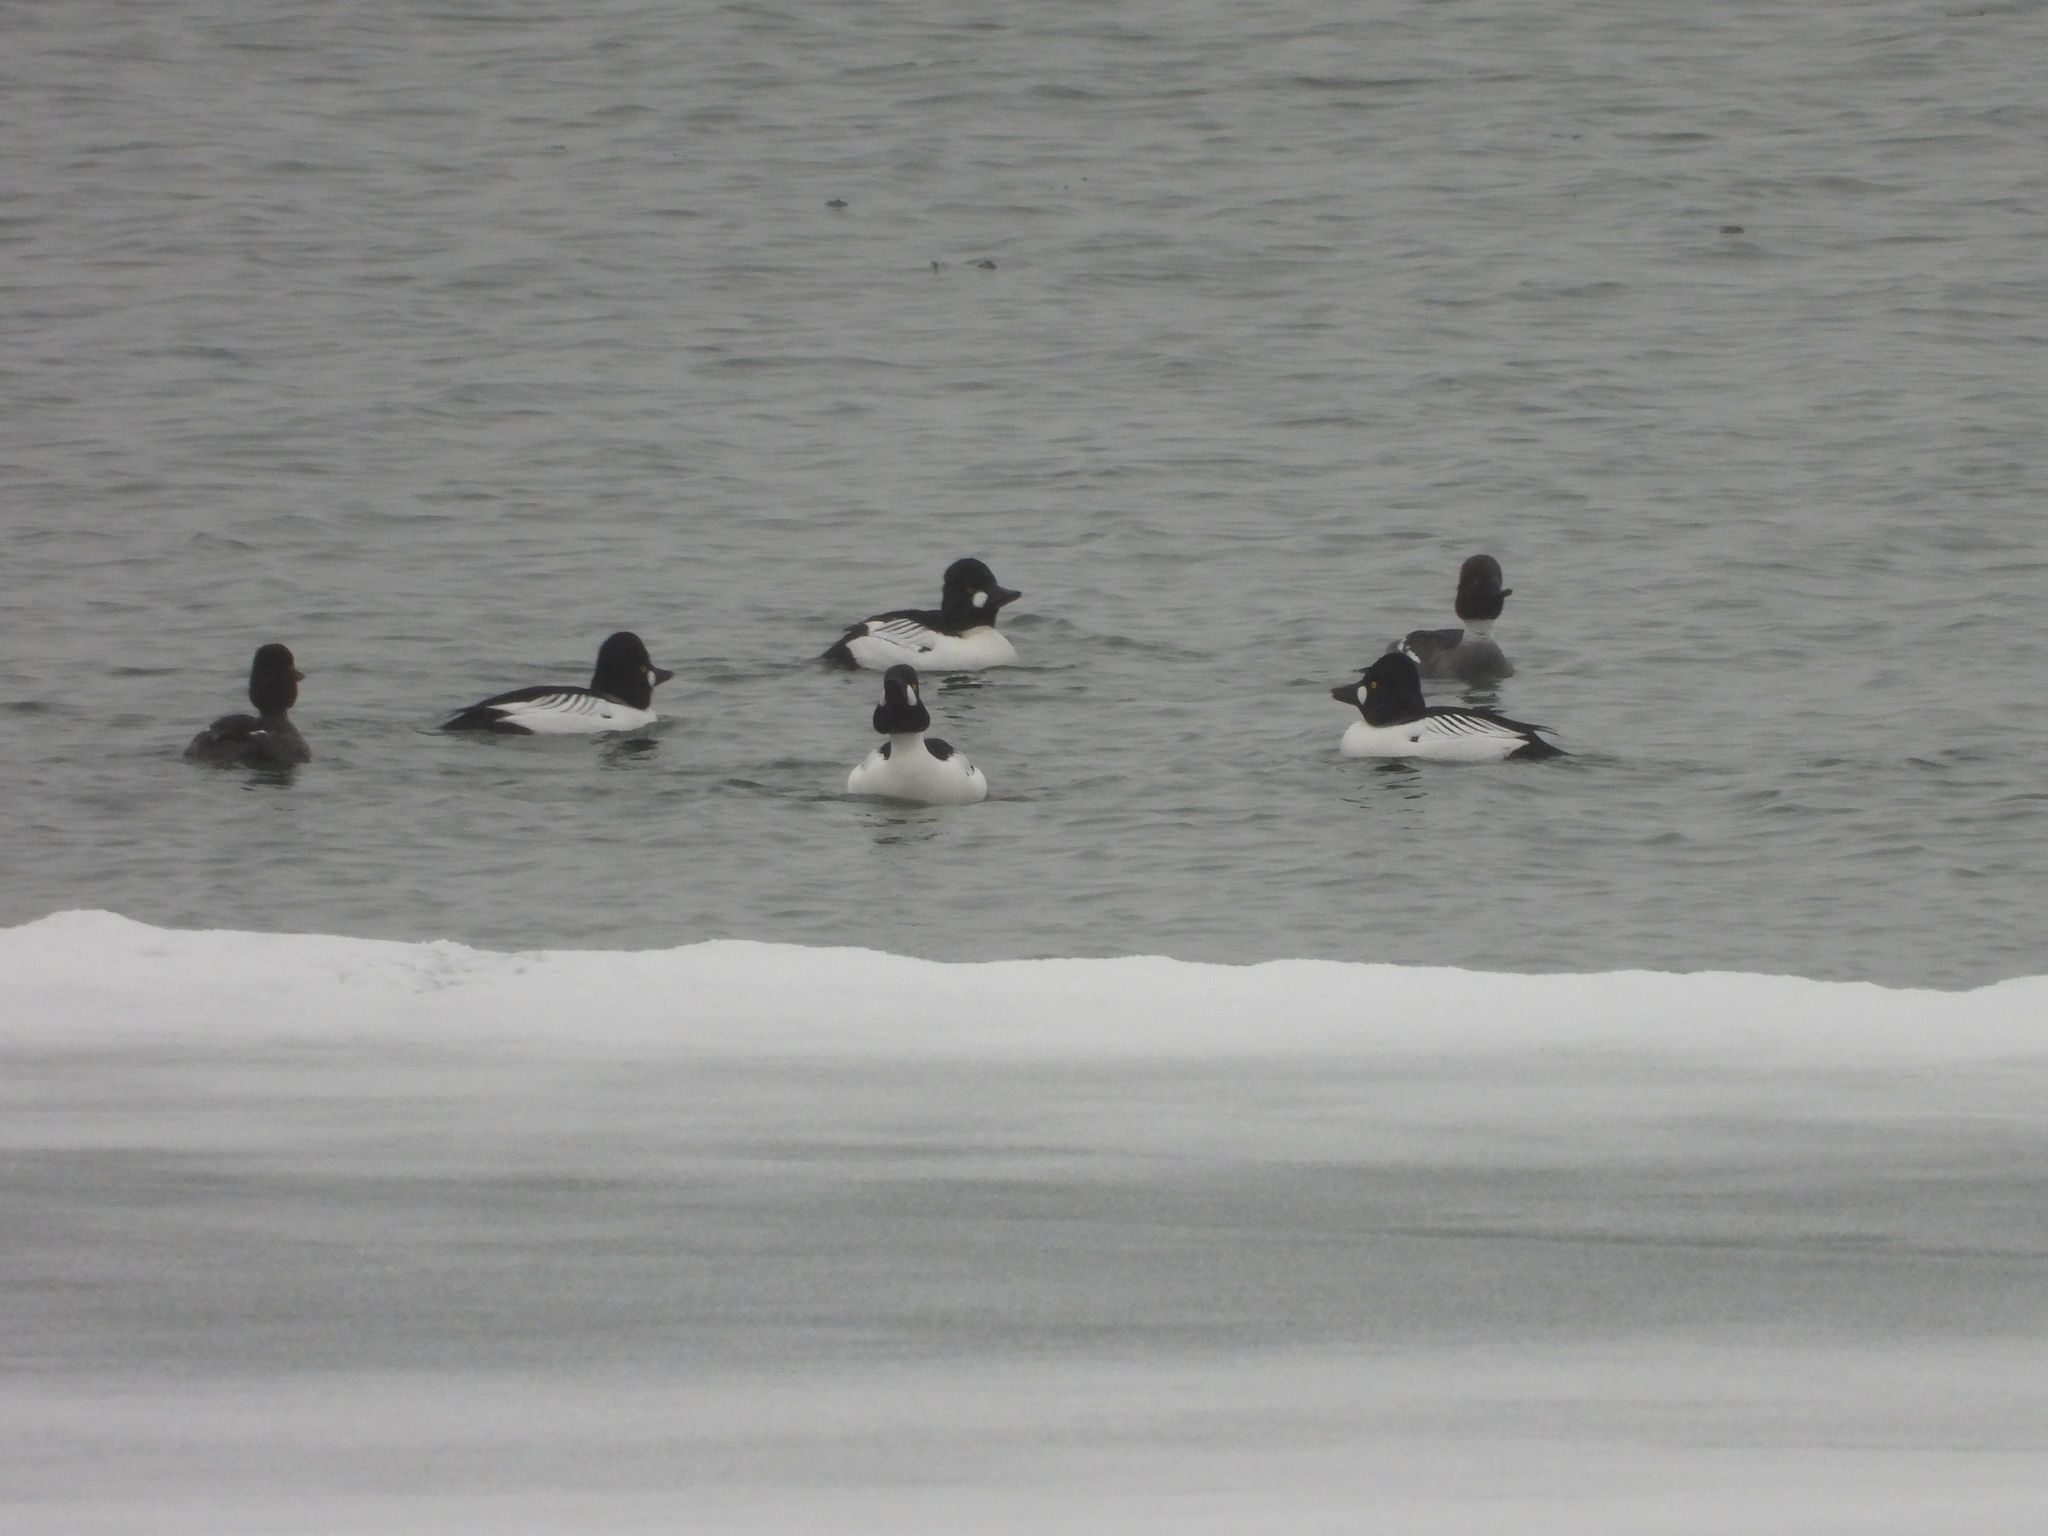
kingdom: Animalia
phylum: Chordata
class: Aves
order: Anseriformes
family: Anatidae
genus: Bucephala
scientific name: Bucephala clangula
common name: Common goldeneye
